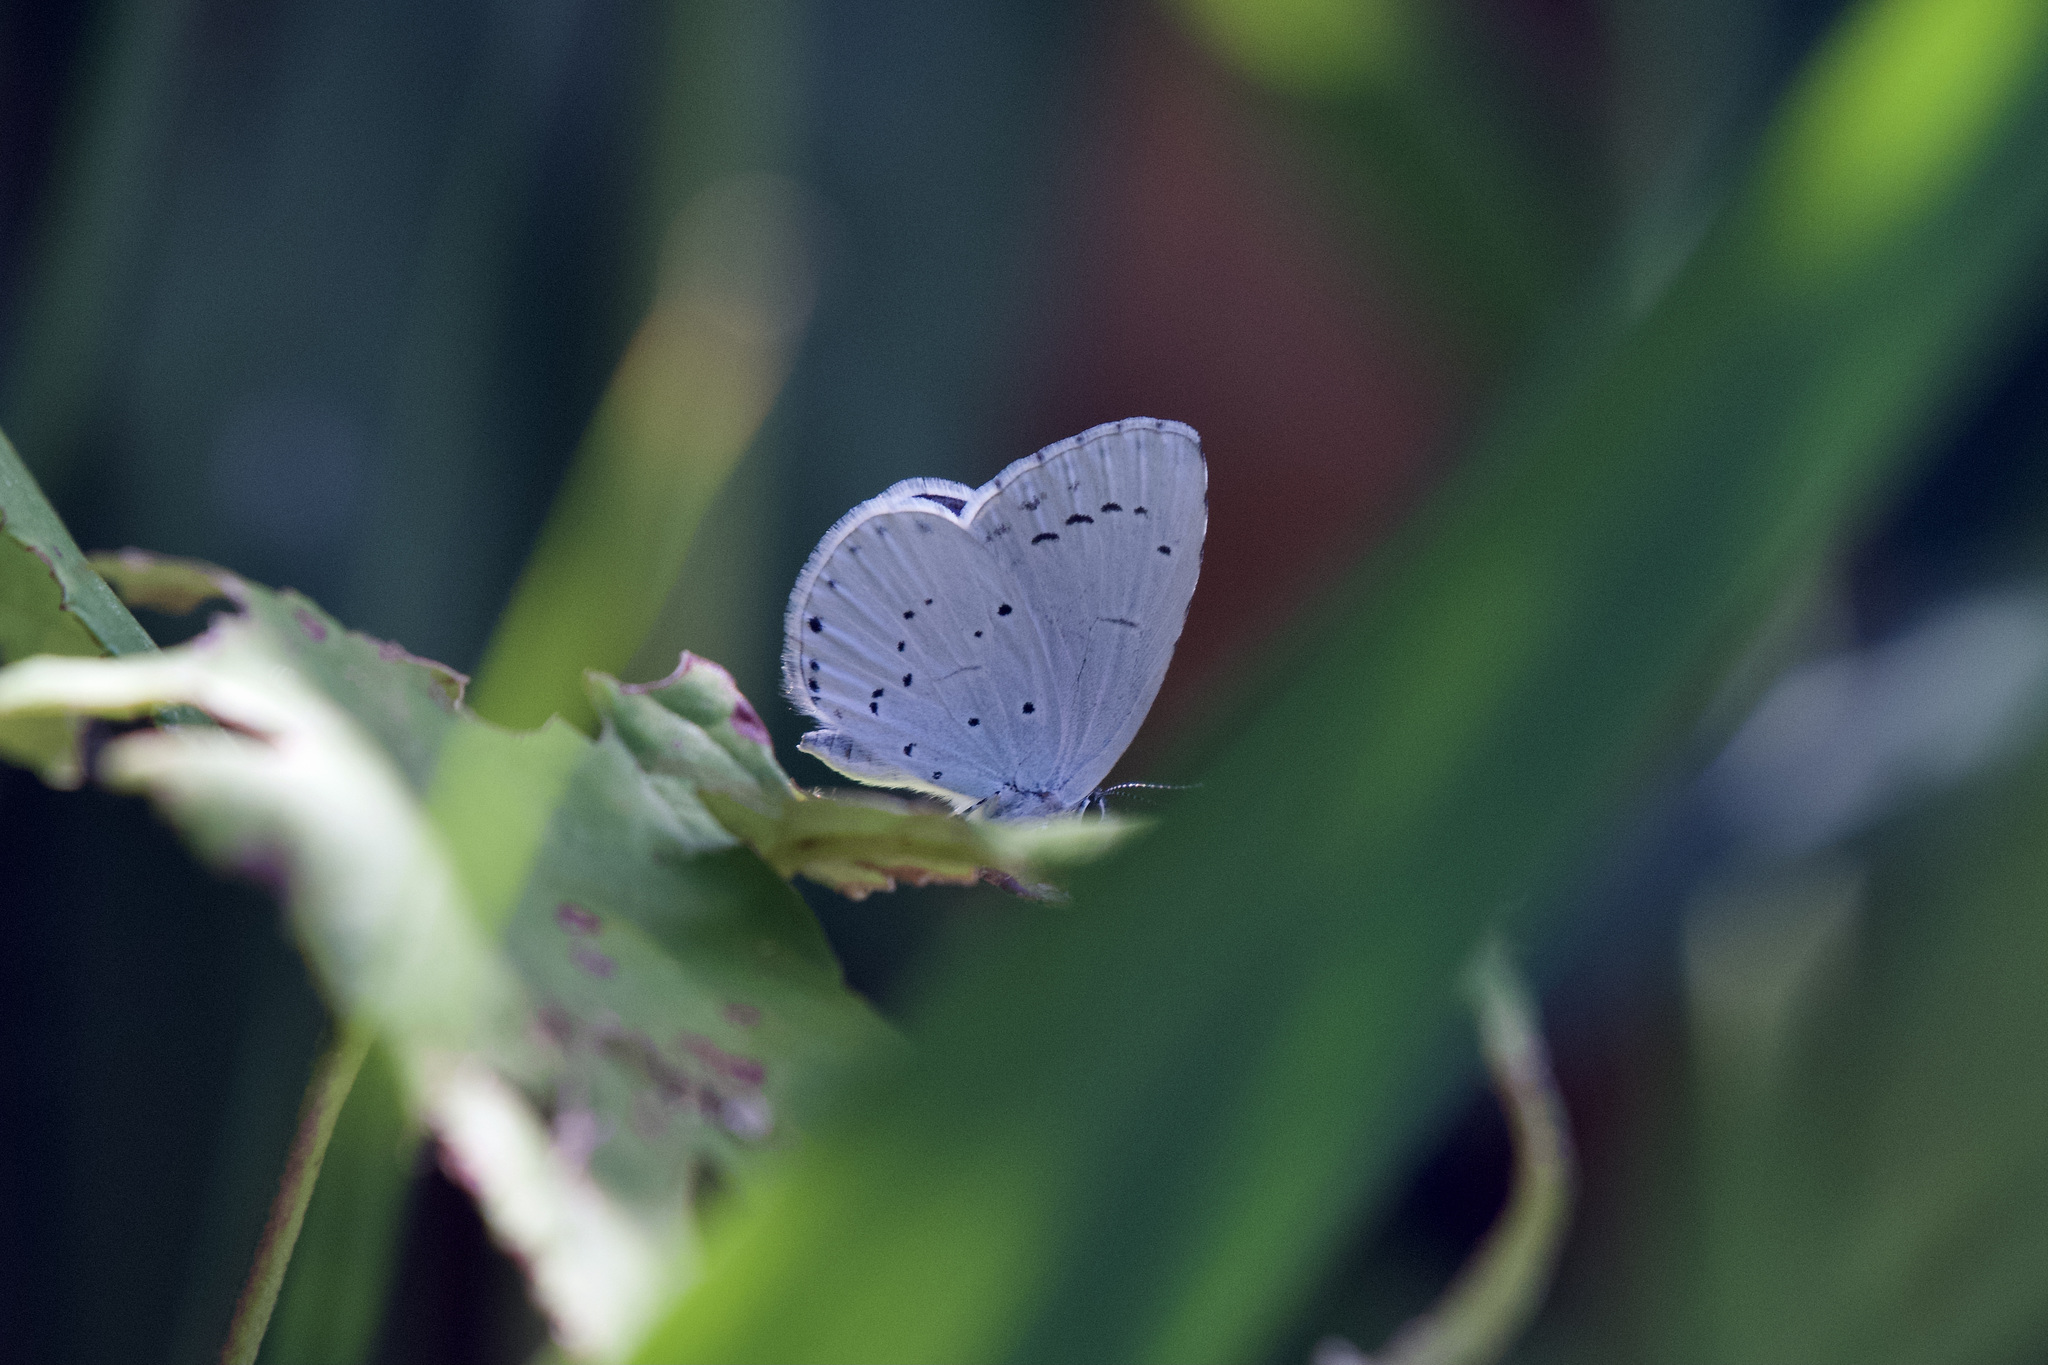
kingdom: Animalia
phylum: Arthropoda
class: Insecta
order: Lepidoptera
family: Lycaenidae
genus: Celastrina
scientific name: Celastrina argiolus
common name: Holly blue
